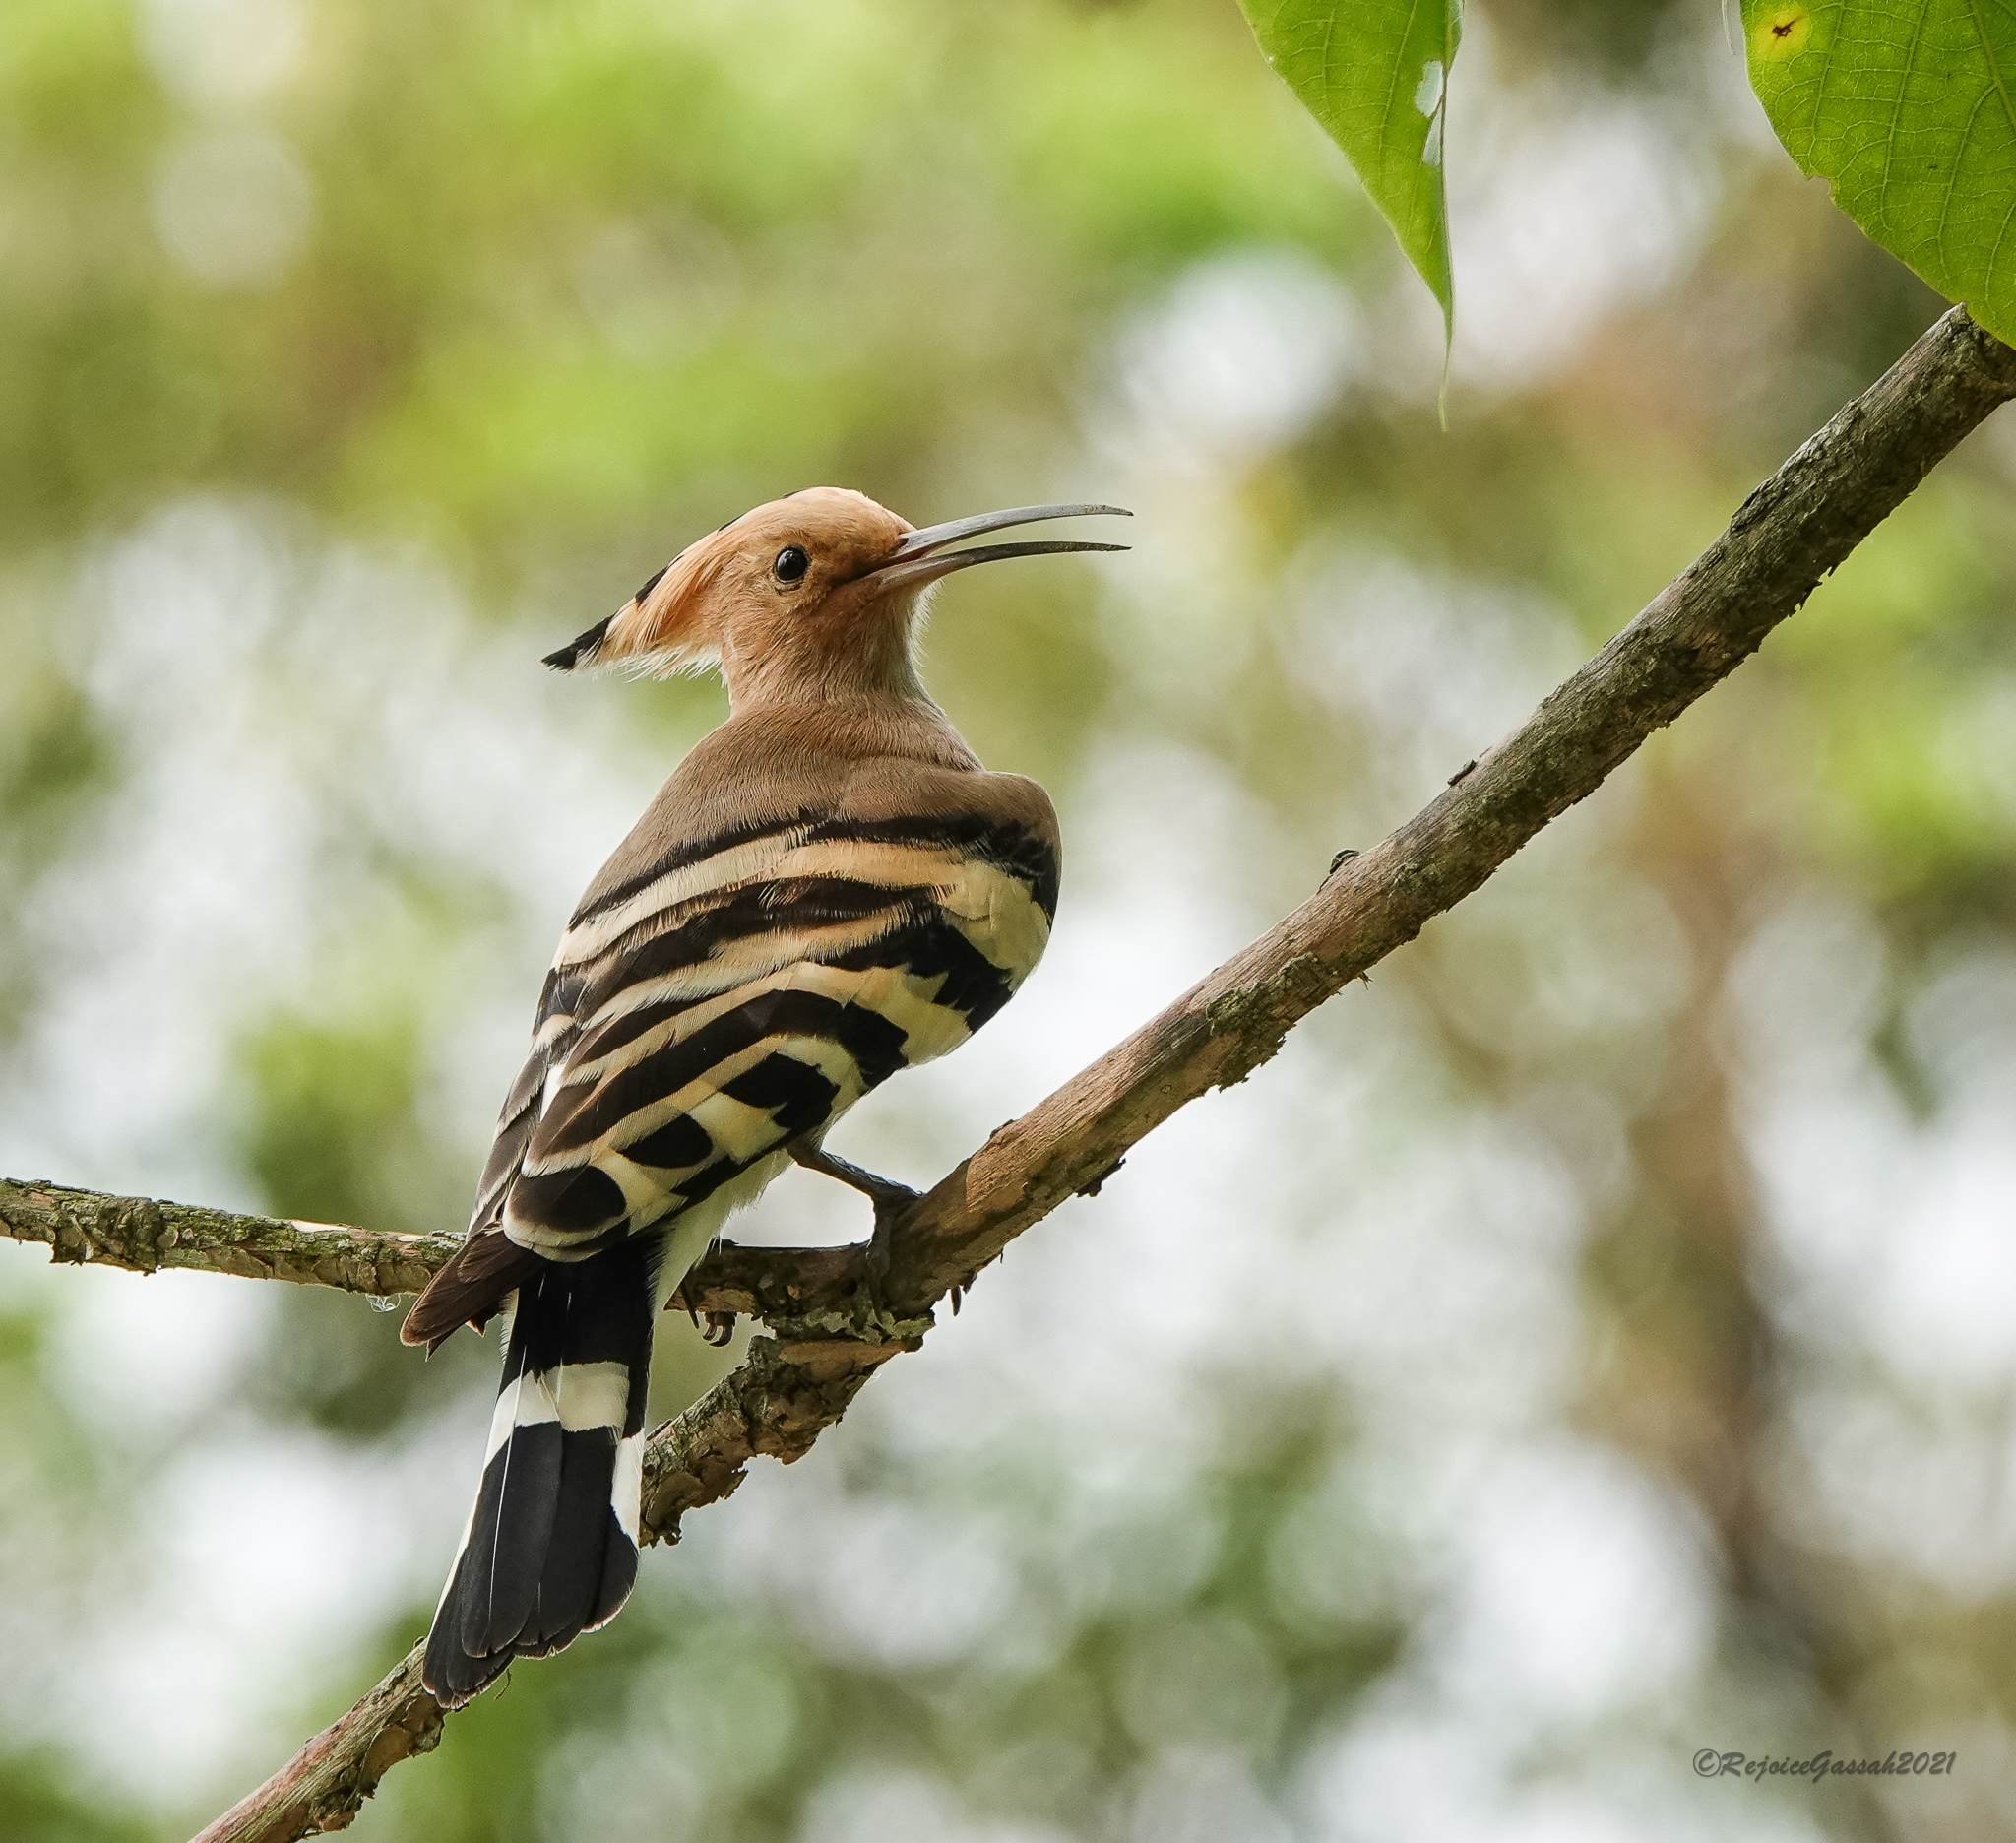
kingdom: Animalia
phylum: Chordata
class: Aves
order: Bucerotiformes
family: Upupidae
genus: Upupa
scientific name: Upupa epops
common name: Eurasian hoopoe
